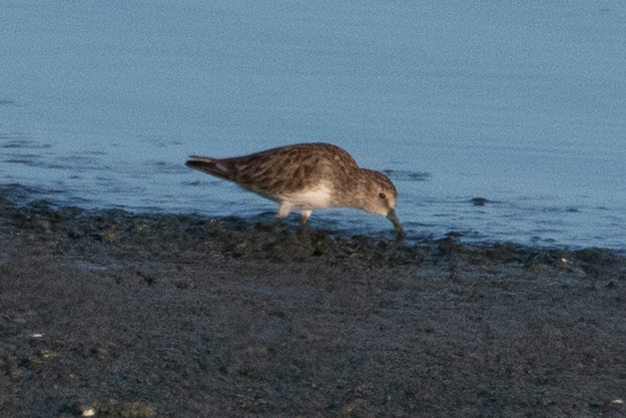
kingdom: Animalia
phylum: Chordata
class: Aves
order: Charadriiformes
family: Scolopacidae
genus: Calidris
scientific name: Calidris minutilla
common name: Least sandpiper
